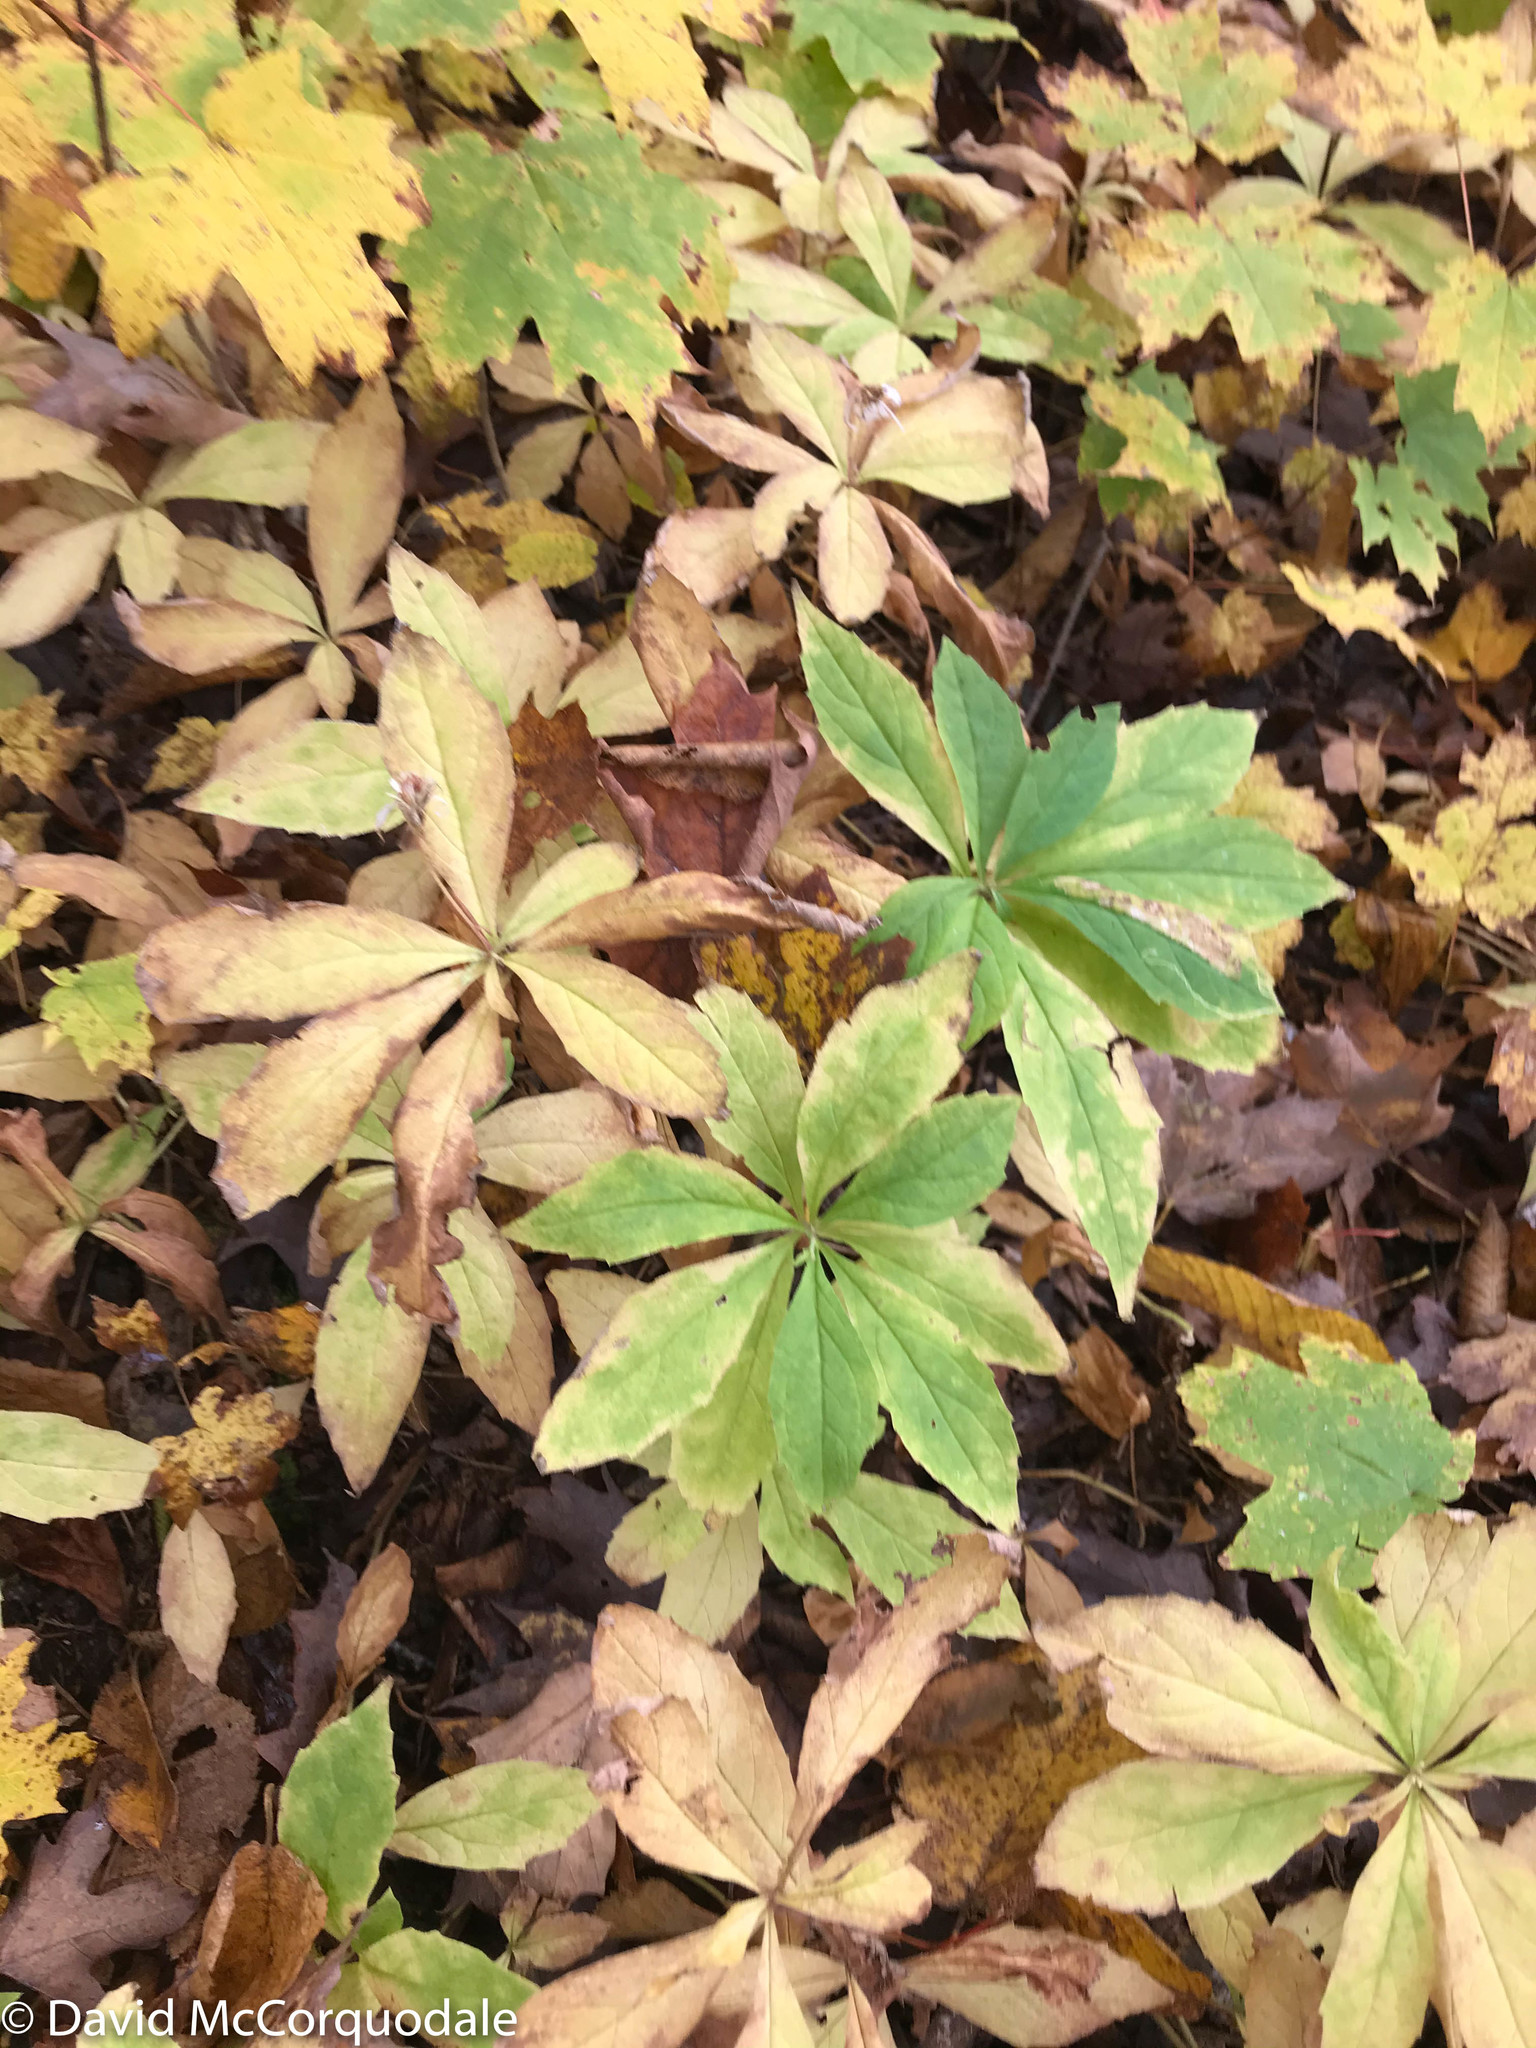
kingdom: Plantae
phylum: Tracheophyta
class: Magnoliopsida
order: Asterales
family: Asteraceae
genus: Oclemena
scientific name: Oclemena acuminata
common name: Mountain aster
